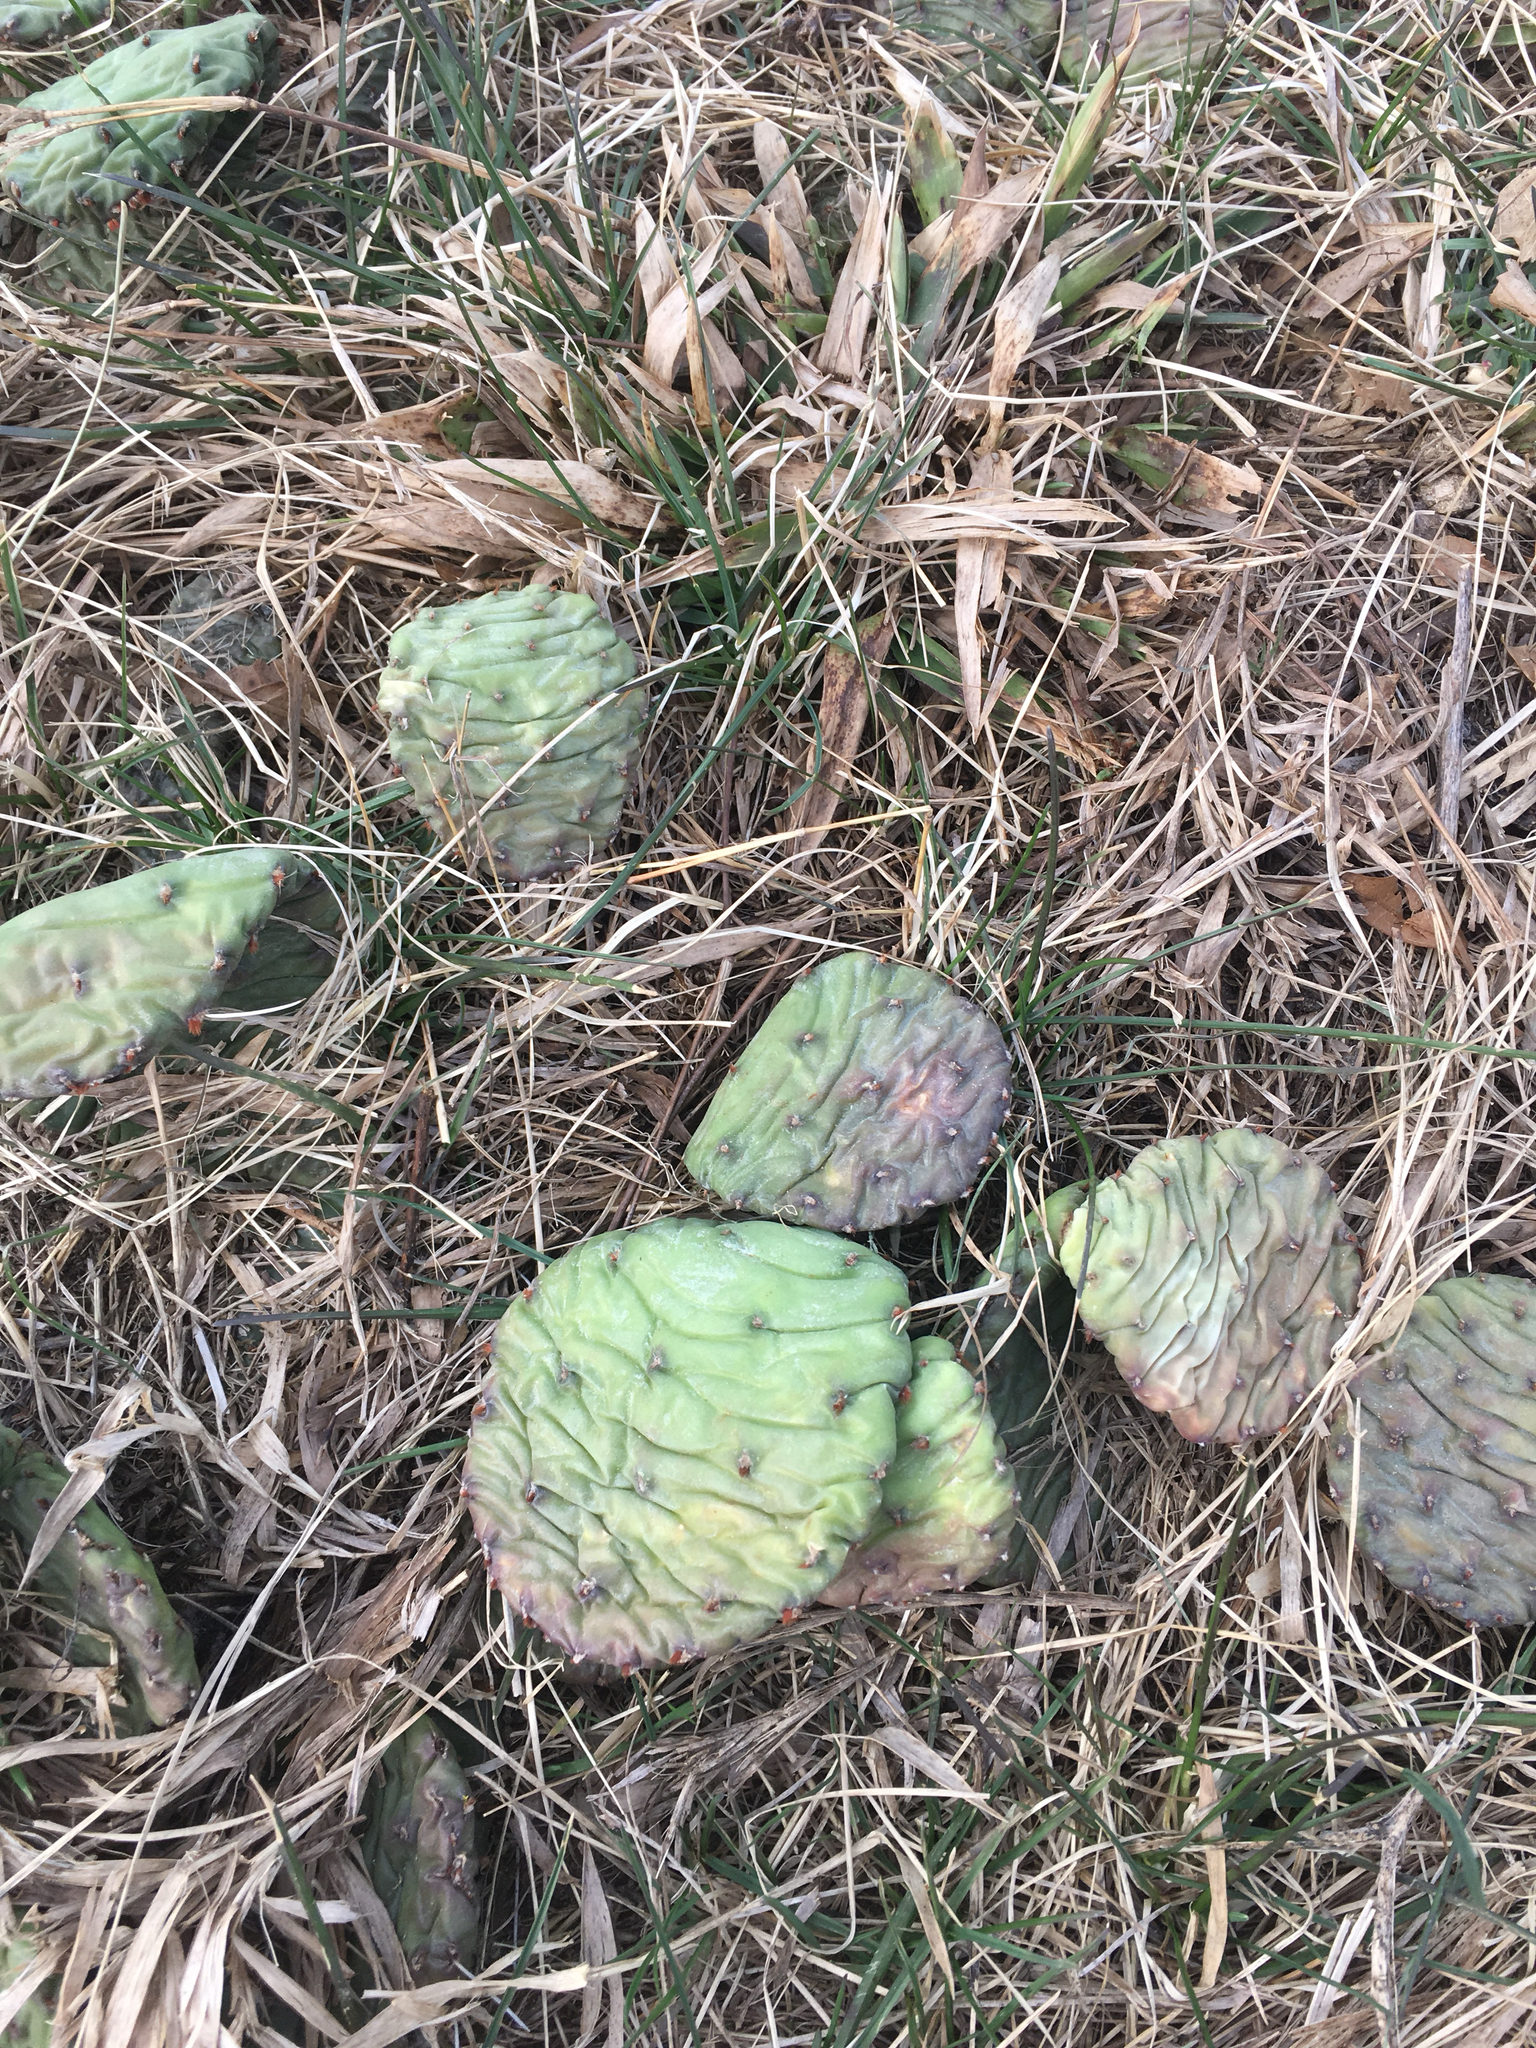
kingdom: Plantae
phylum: Tracheophyta
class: Magnoliopsida
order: Caryophyllales
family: Cactaceae
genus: Opuntia
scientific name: Opuntia humifusa
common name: Eastern prickly-pear
